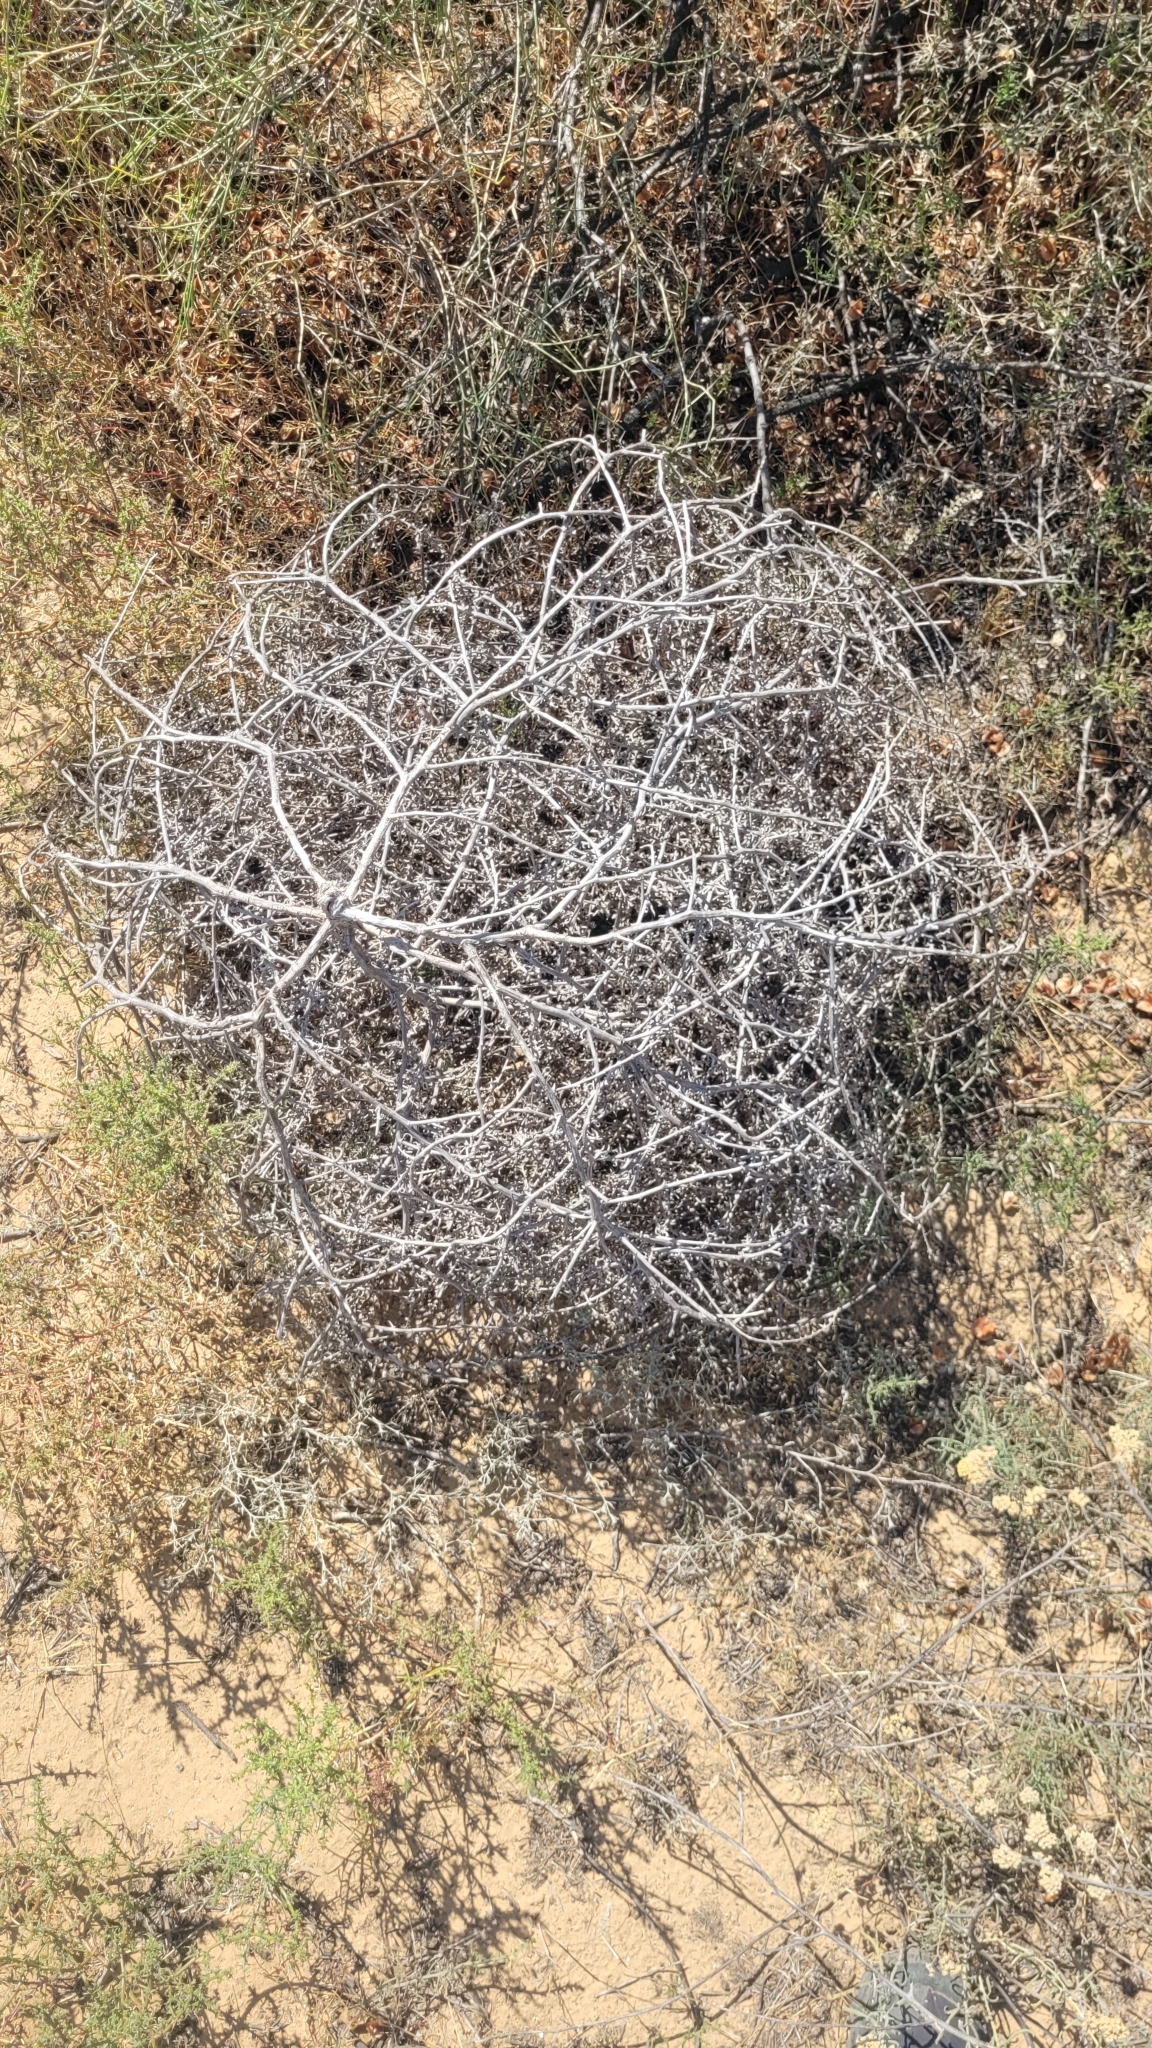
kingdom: Plantae
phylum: Tracheophyta
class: Magnoliopsida
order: Caryophyllales
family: Amaranthaceae
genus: Salsola
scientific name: Salsola tragus
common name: Prickly russian thistle
